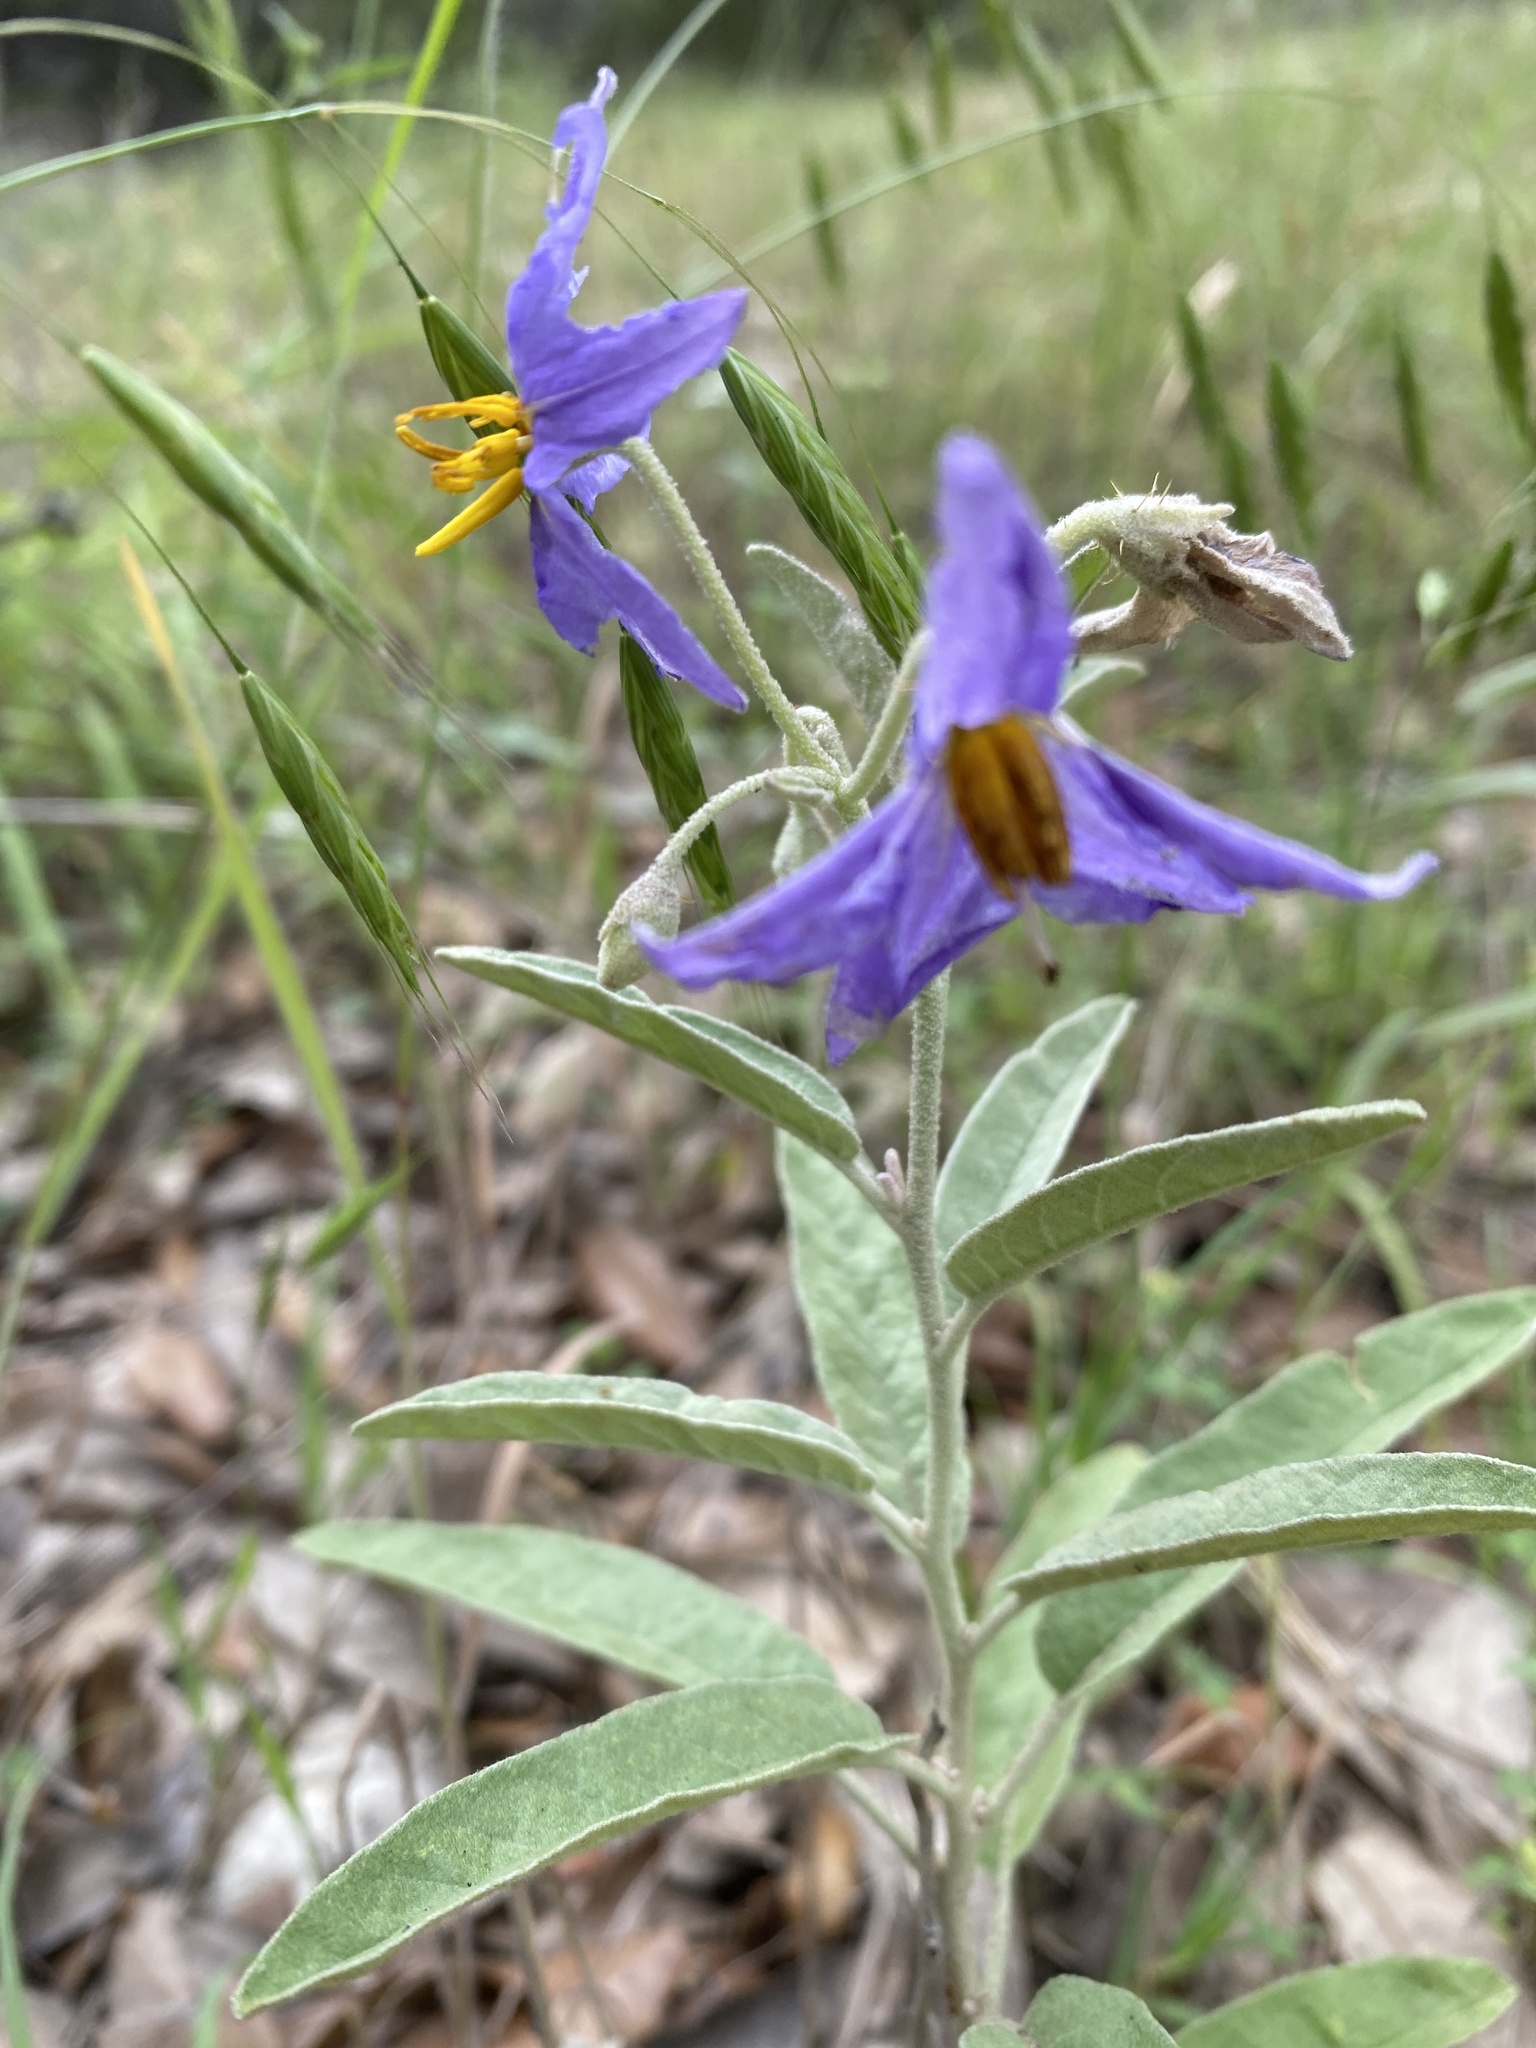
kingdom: Plantae
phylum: Tracheophyta
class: Magnoliopsida
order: Solanales
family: Solanaceae
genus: Solanum
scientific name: Solanum elaeagnifolium
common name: Silverleaf nightshade
